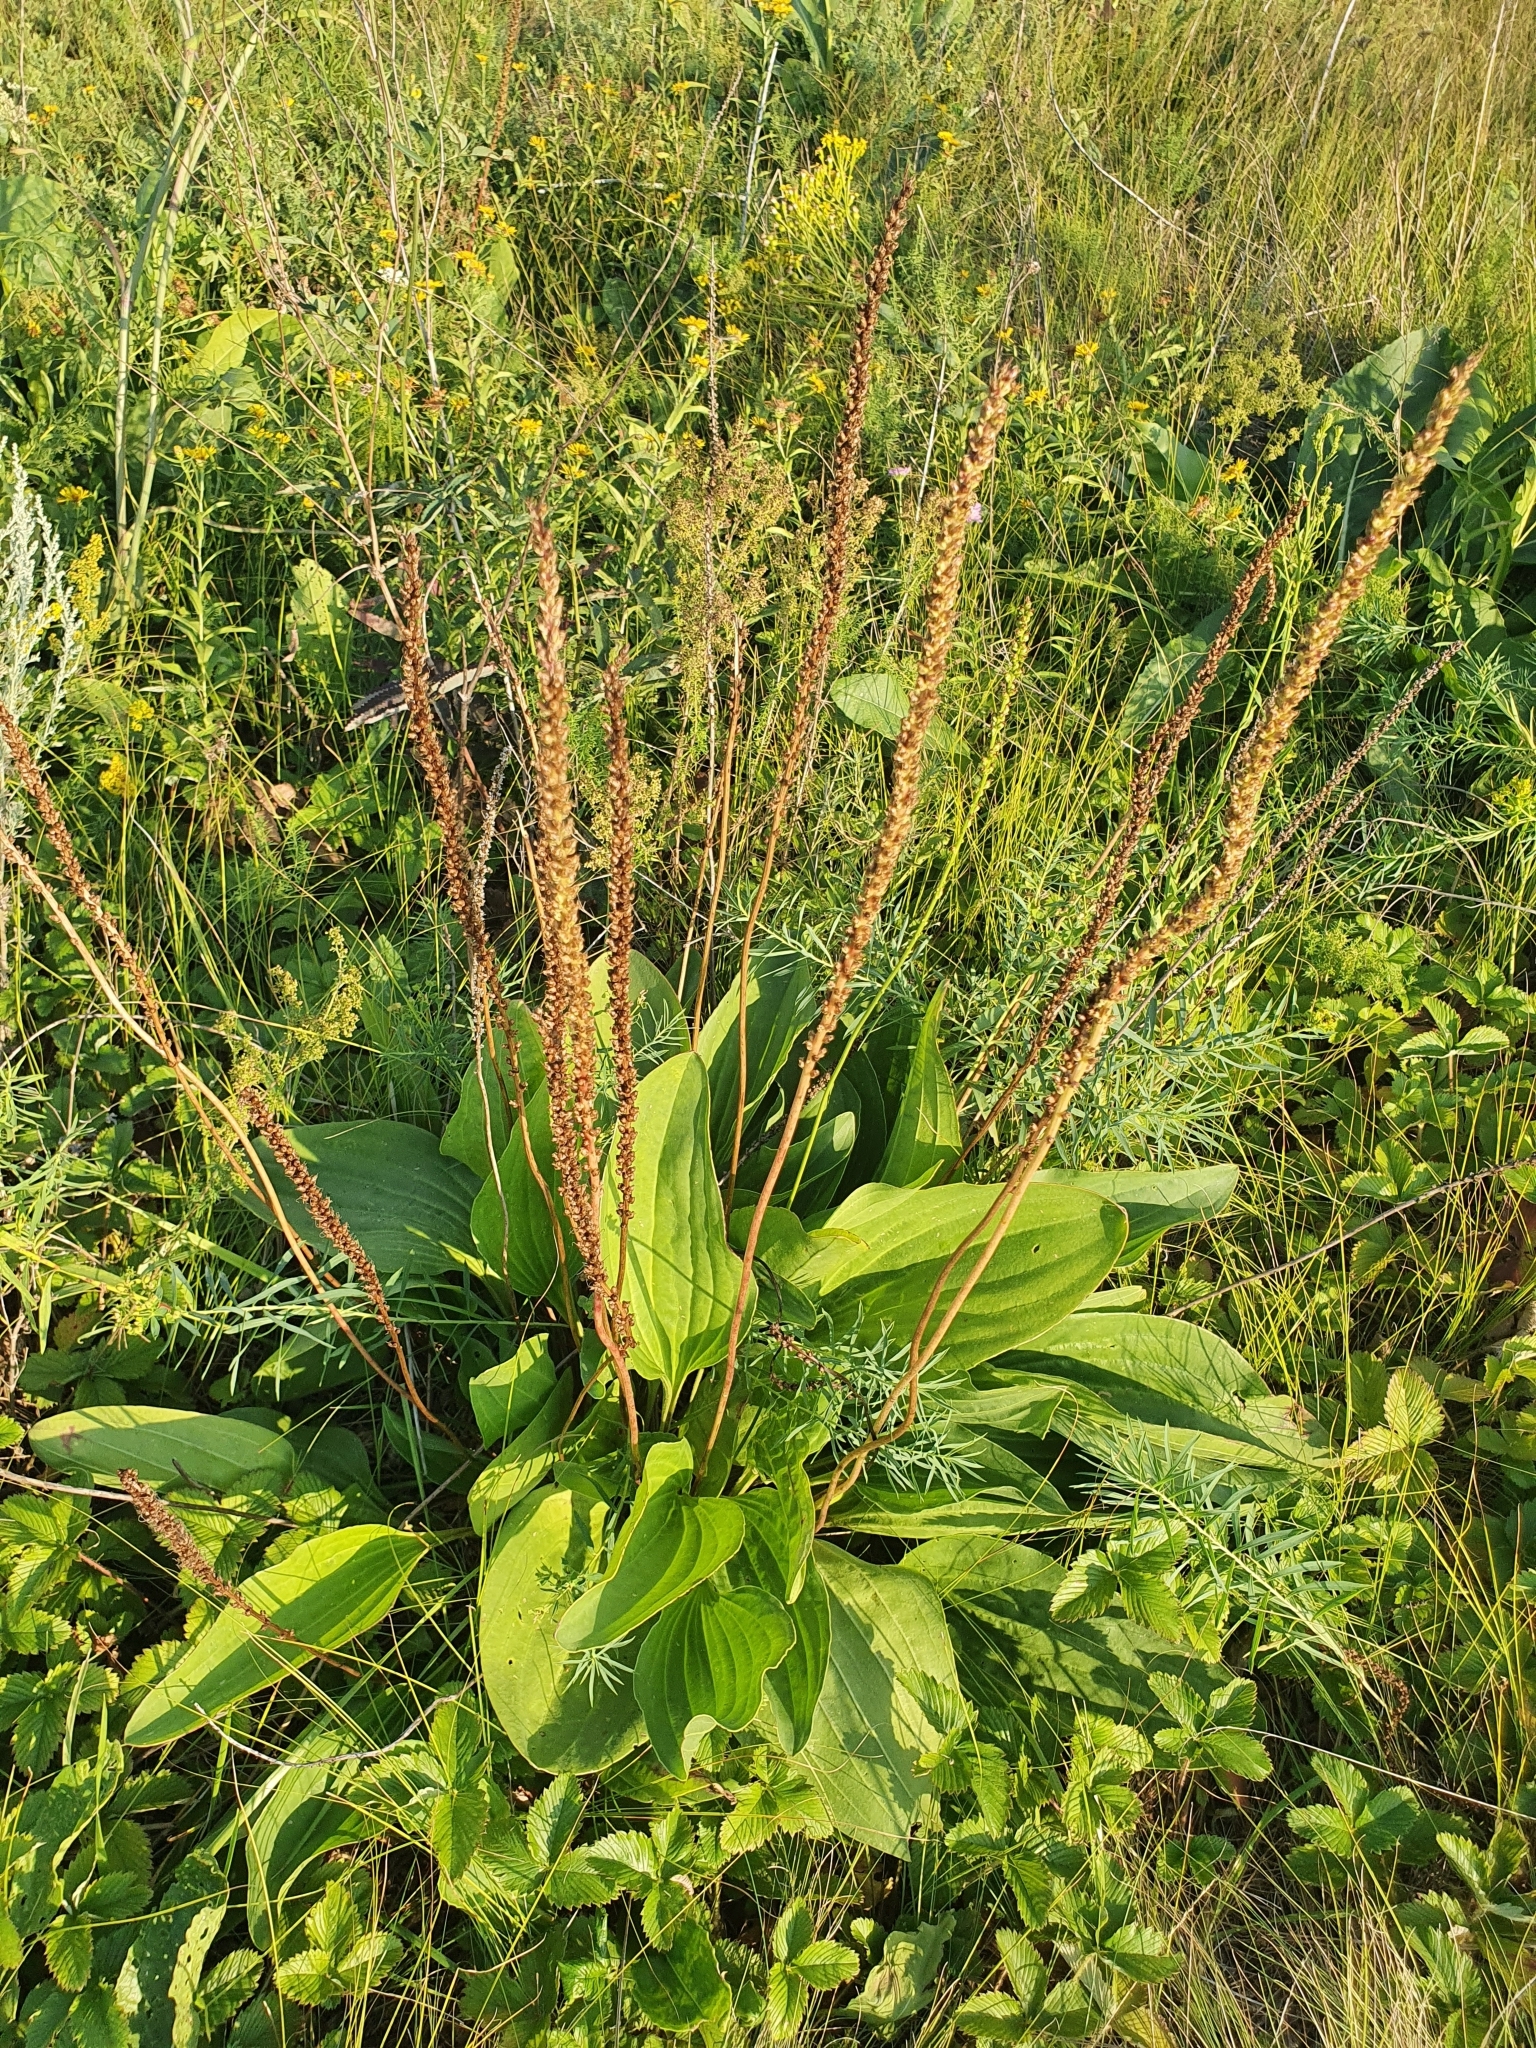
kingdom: Plantae
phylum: Tracheophyta
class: Magnoliopsida
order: Lamiales
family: Plantaginaceae
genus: Plantago
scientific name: Plantago cornuti
